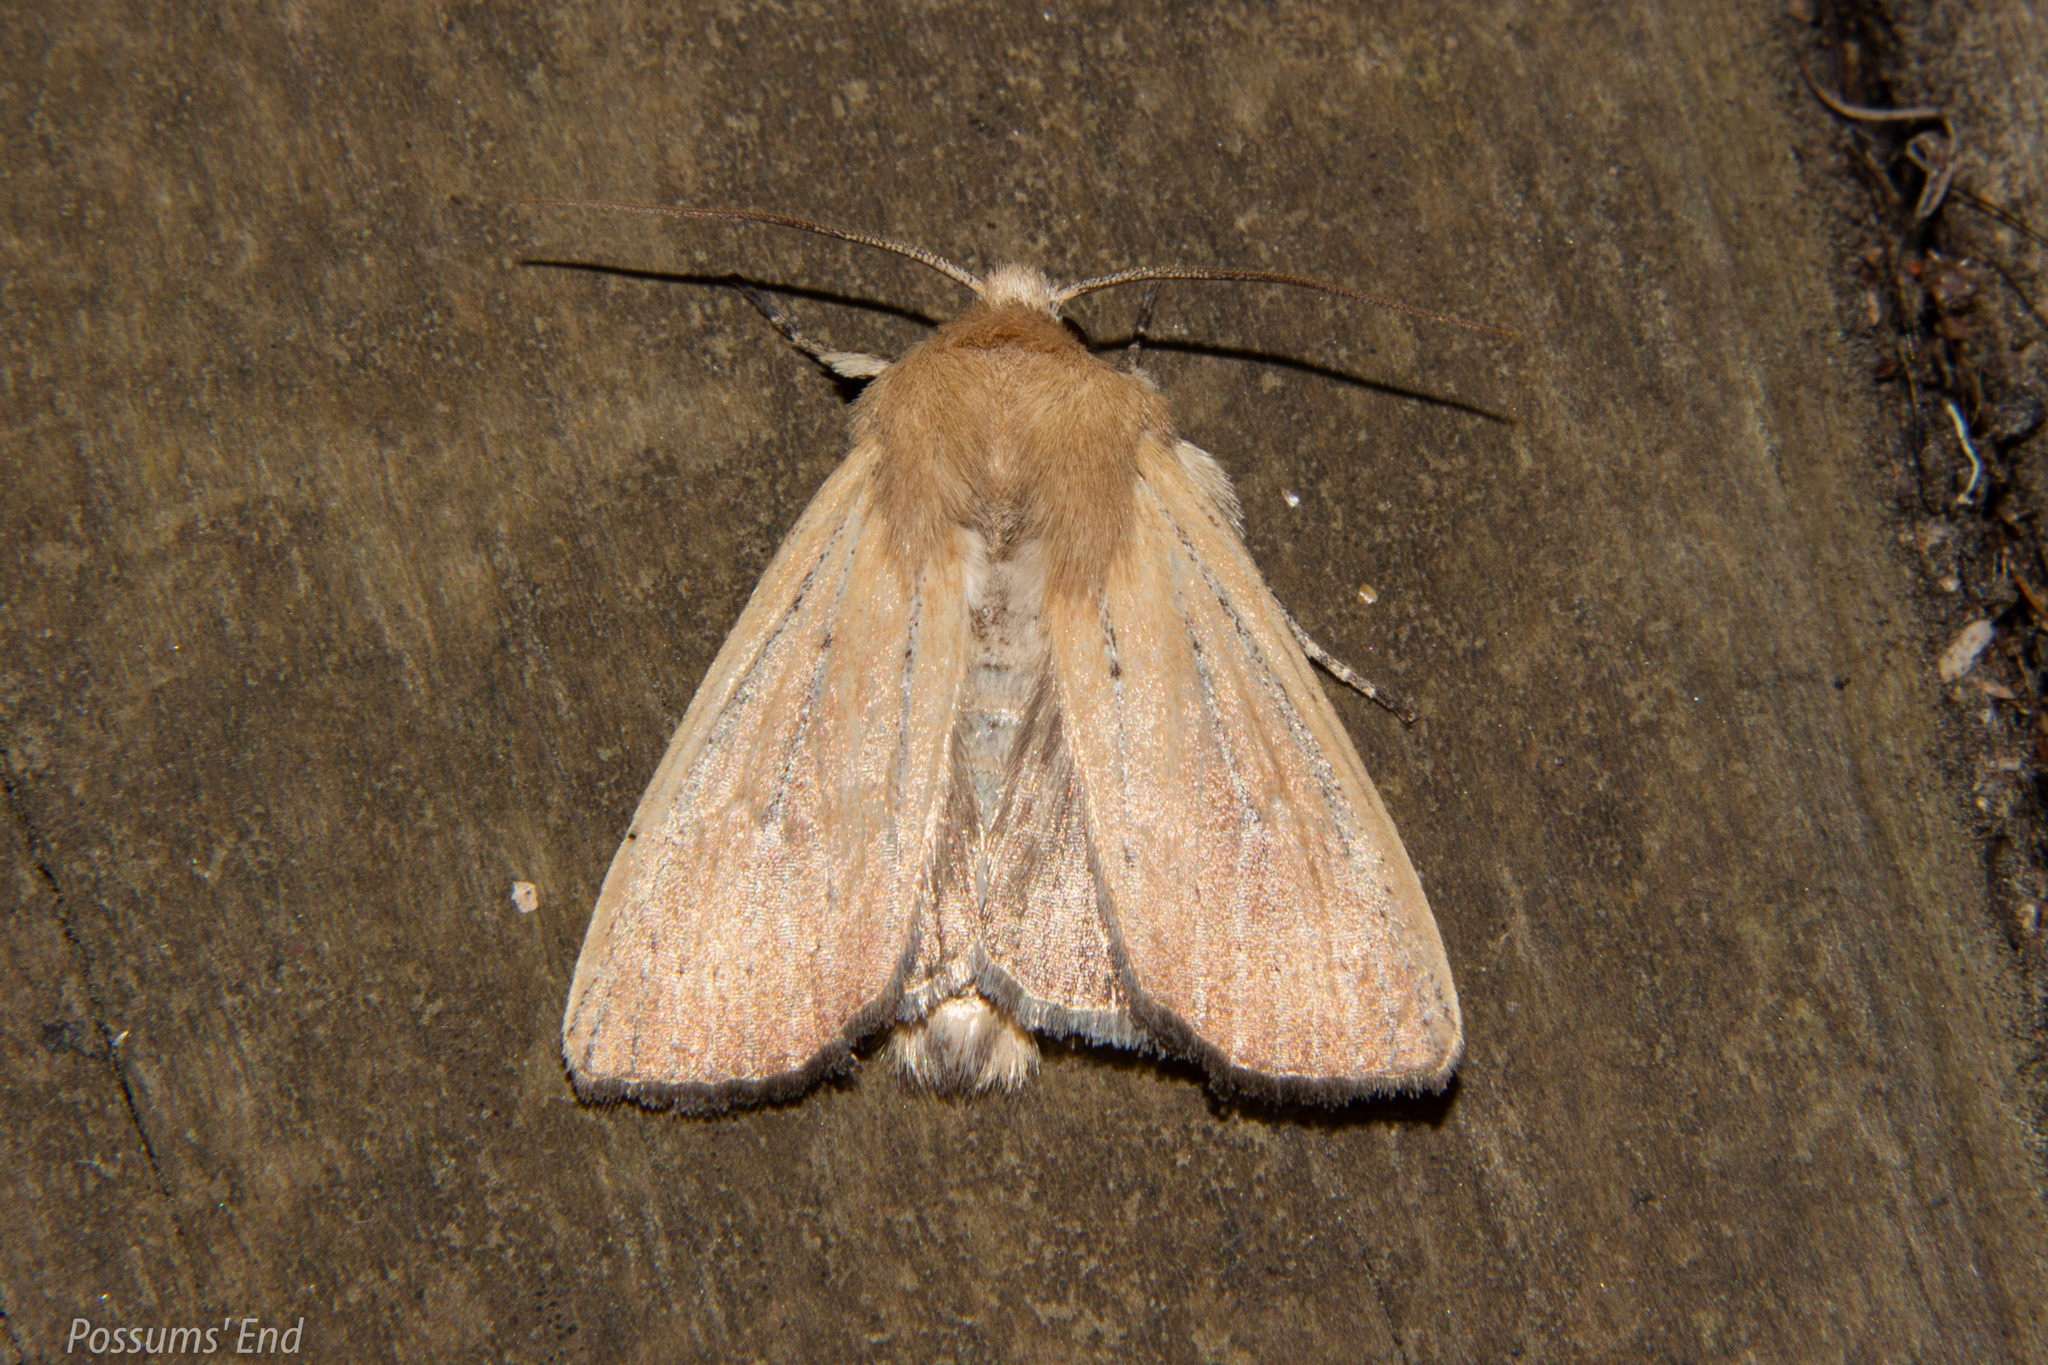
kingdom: Animalia
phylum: Arthropoda
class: Insecta
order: Lepidoptera
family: Noctuidae
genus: Ichneutica
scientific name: Ichneutica blenheimensis
